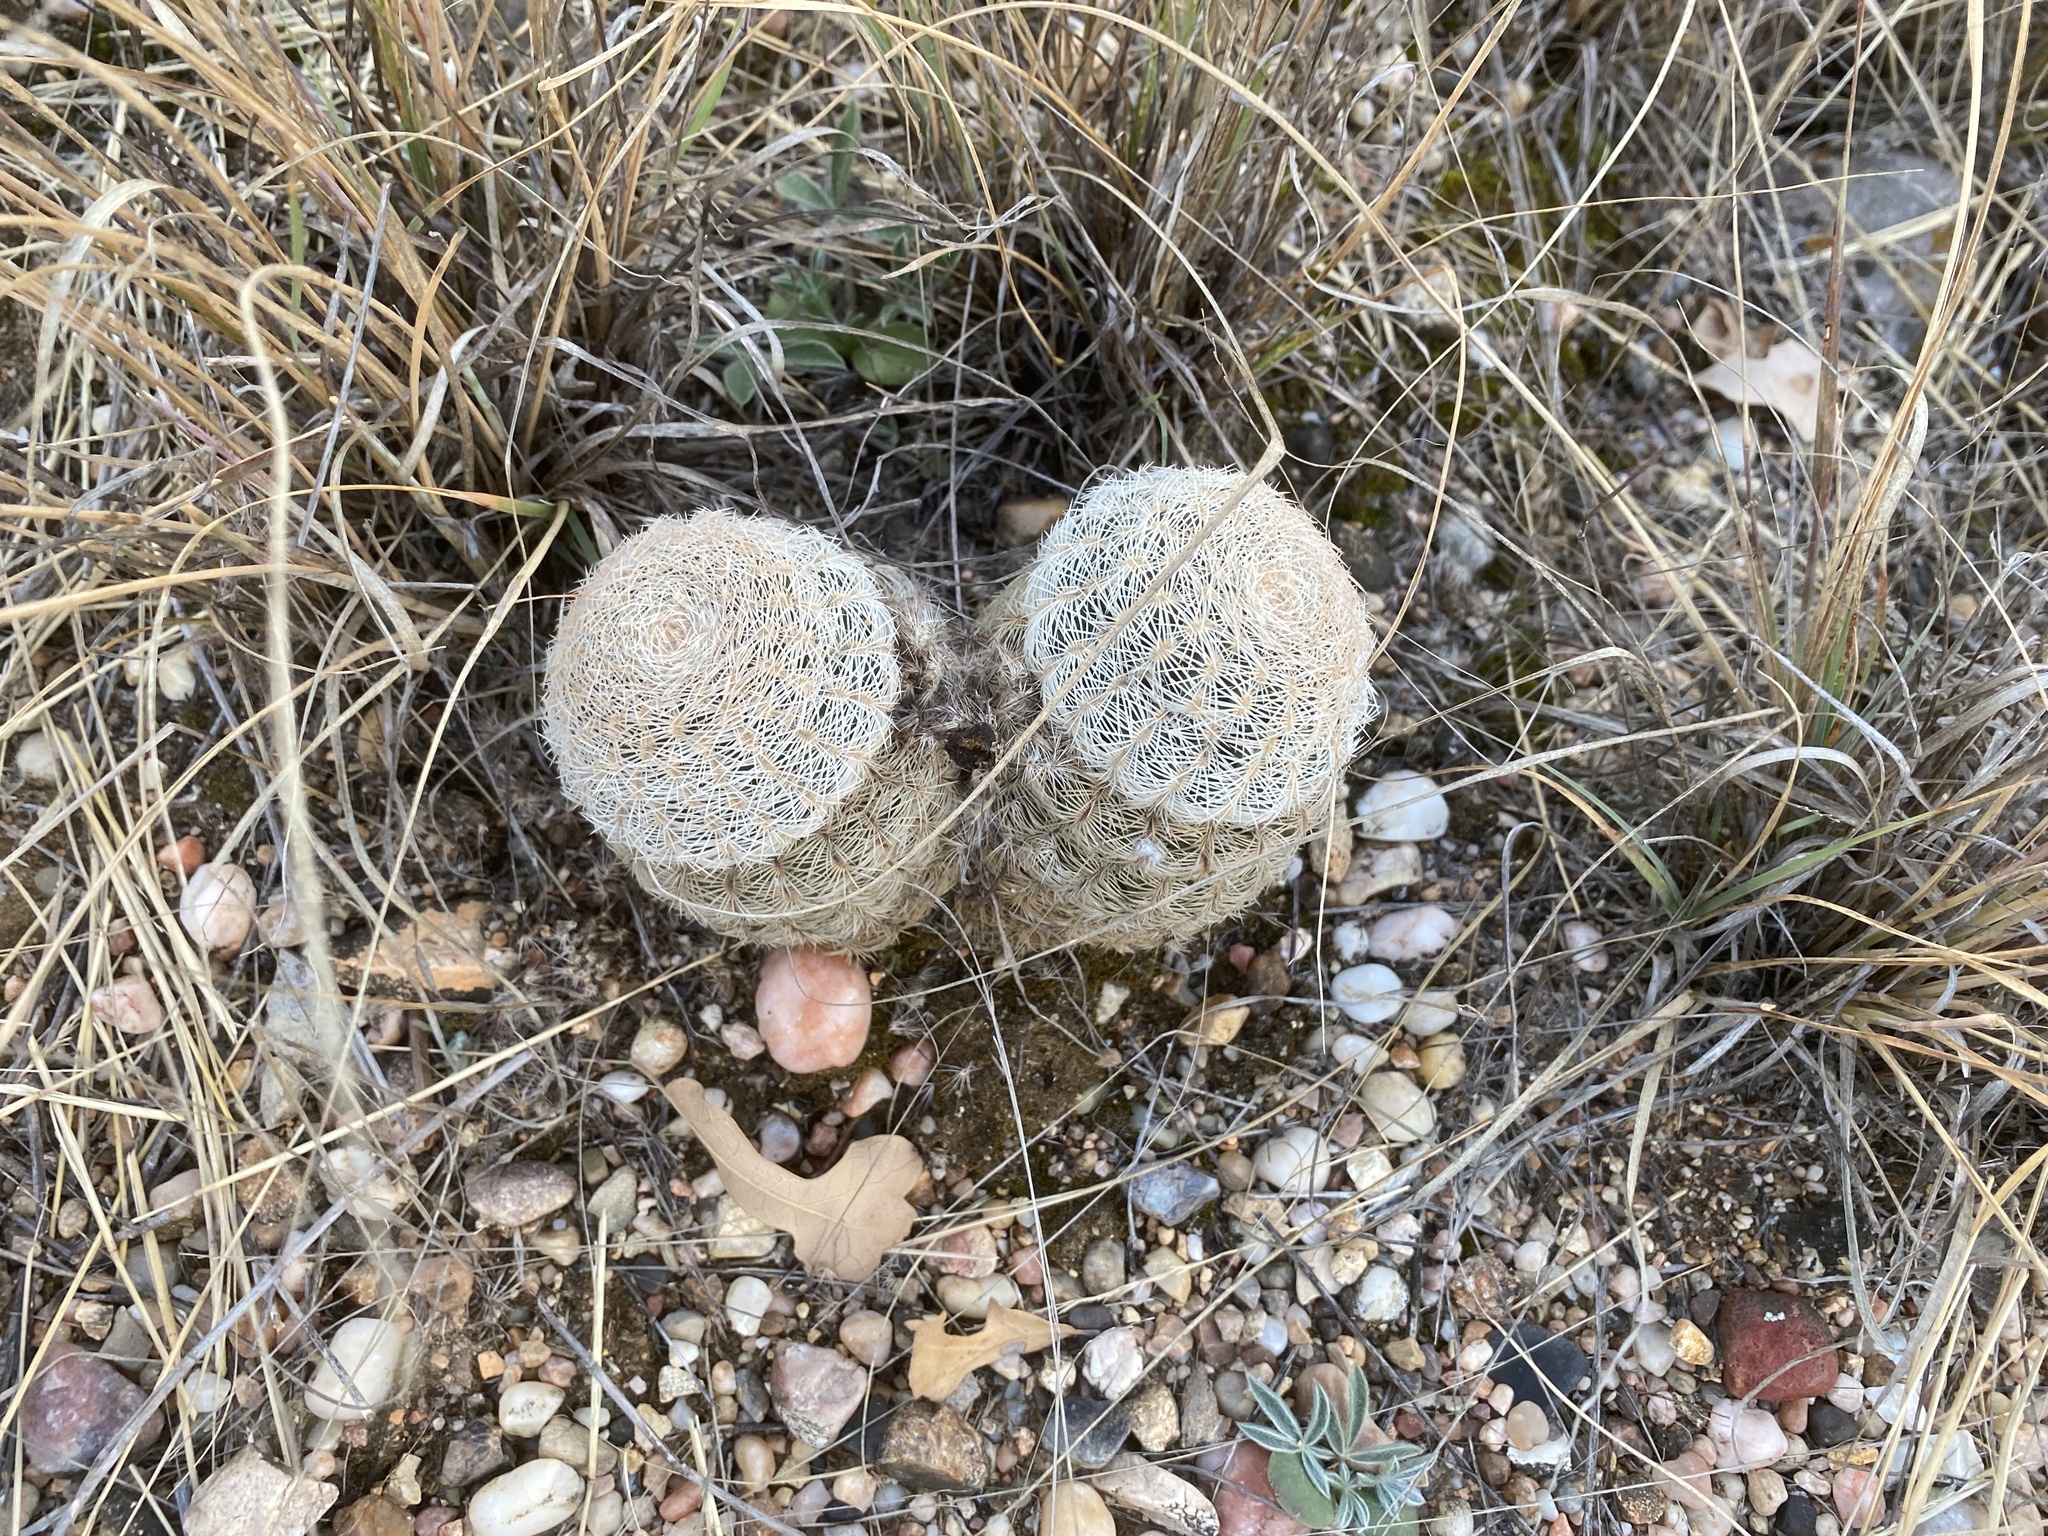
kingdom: Plantae
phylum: Tracheophyta
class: Magnoliopsida
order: Caryophyllales
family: Cactaceae
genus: Echinocereus
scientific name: Echinocereus reichenbachii
